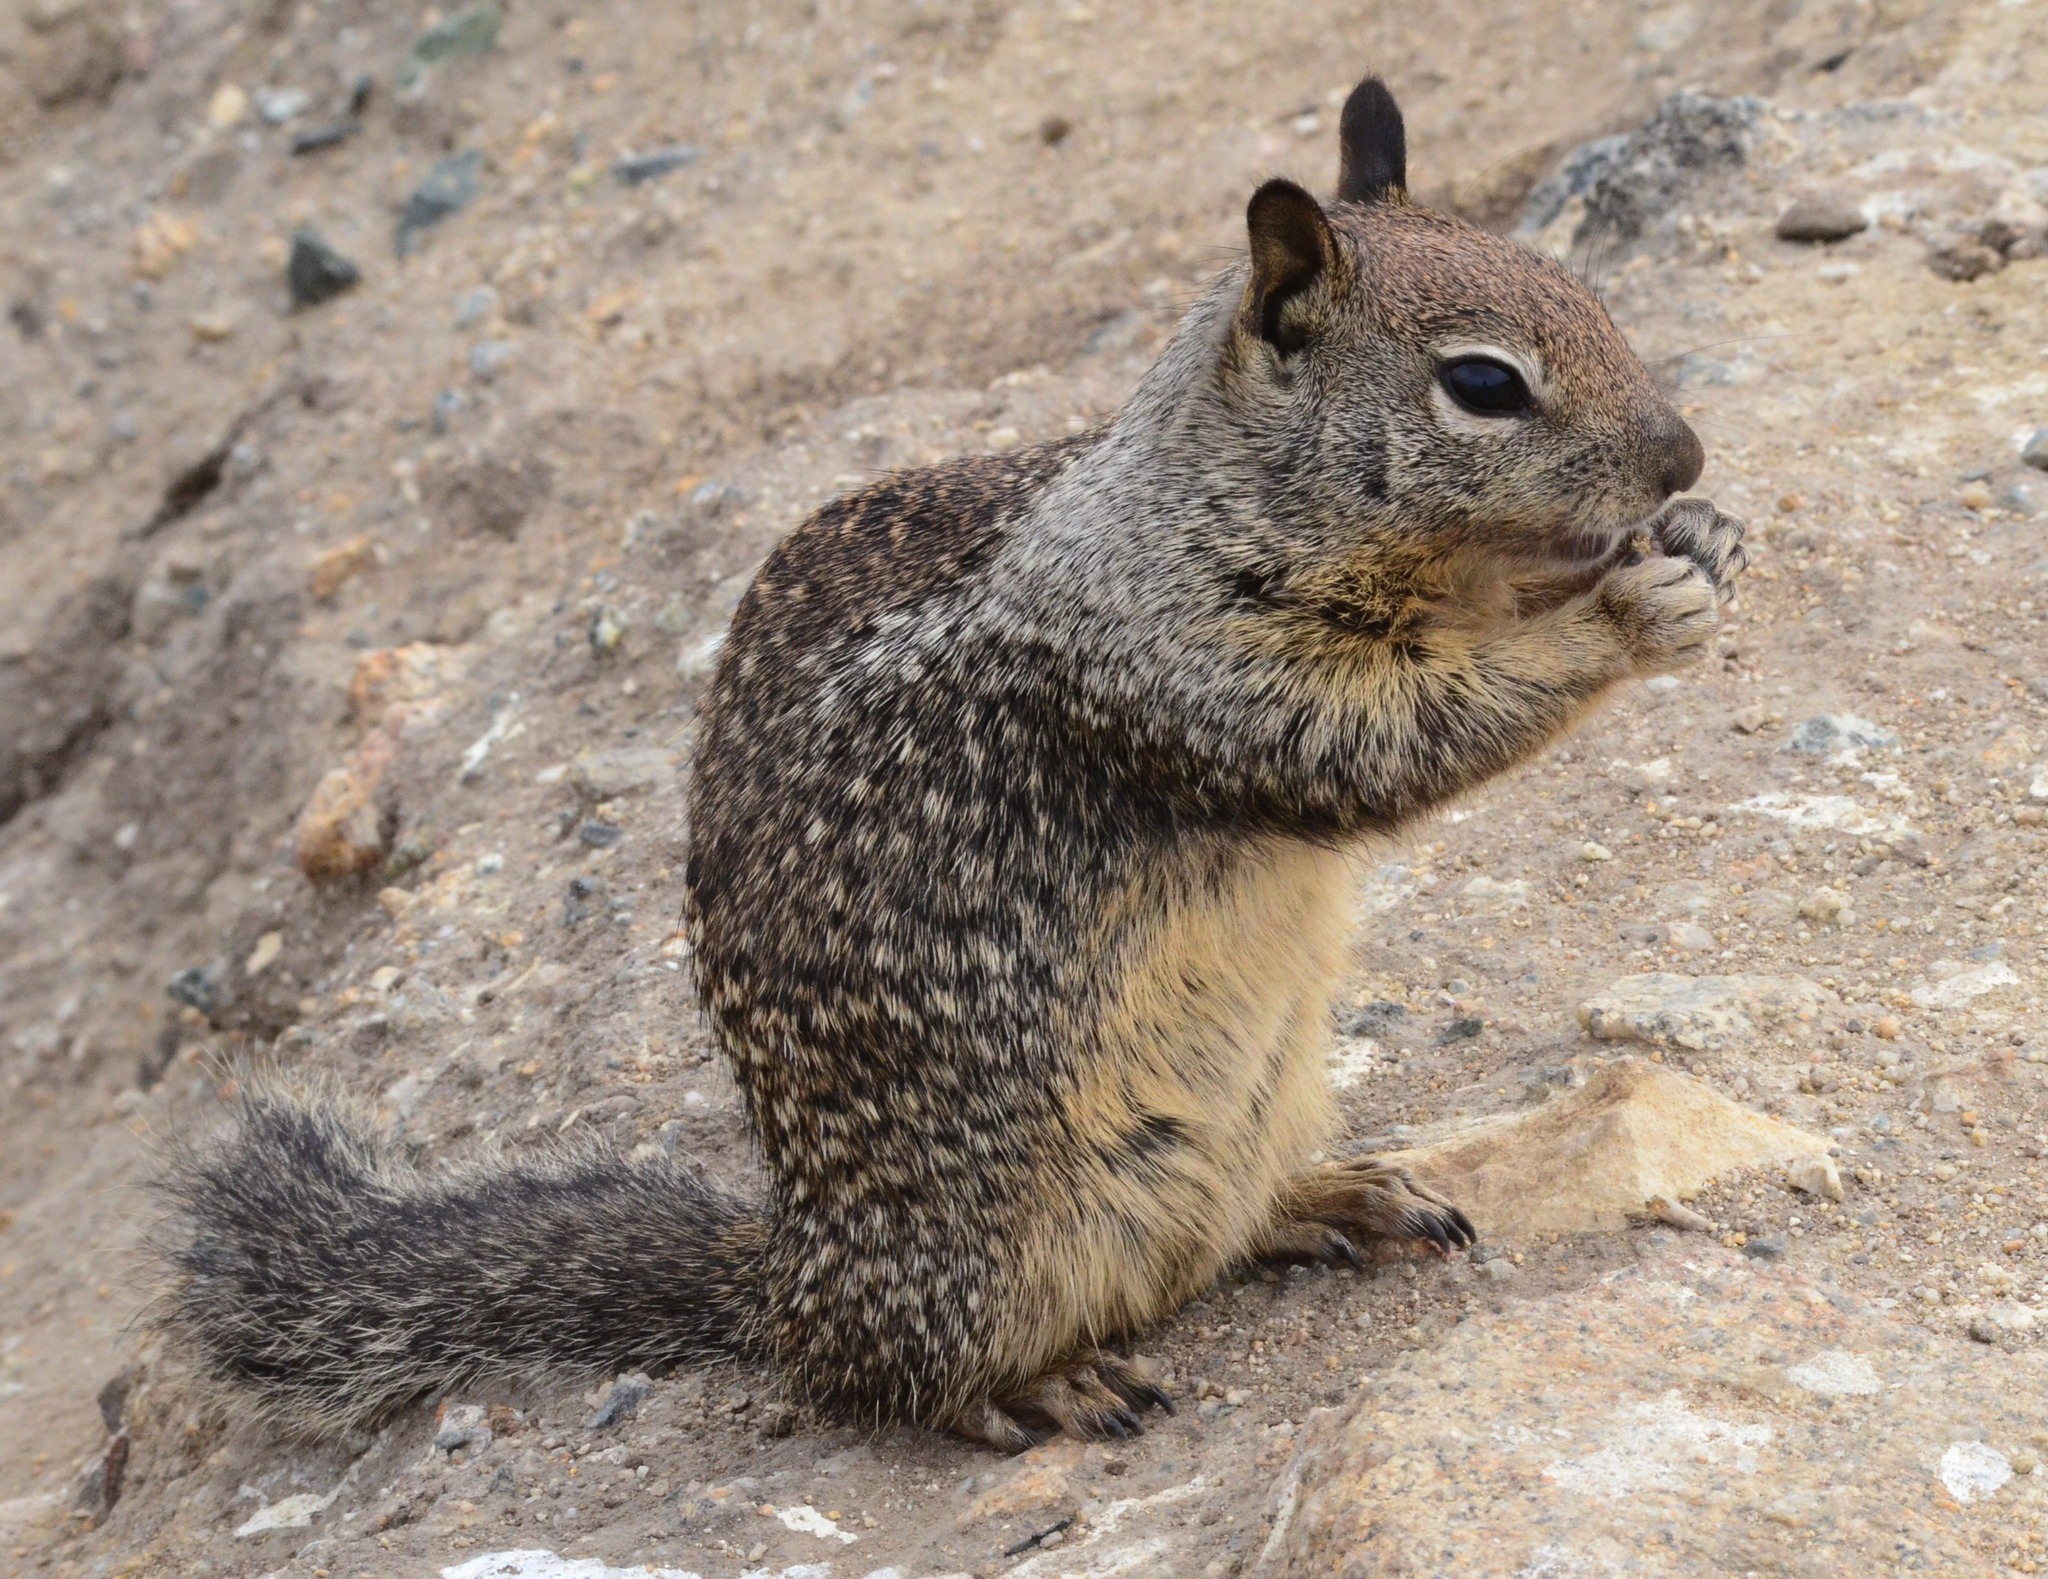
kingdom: Animalia
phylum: Chordata
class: Mammalia
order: Rodentia
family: Sciuridae
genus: Otospermophilus
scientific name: Otospermophilus beecheyi
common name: California ground squirrel
